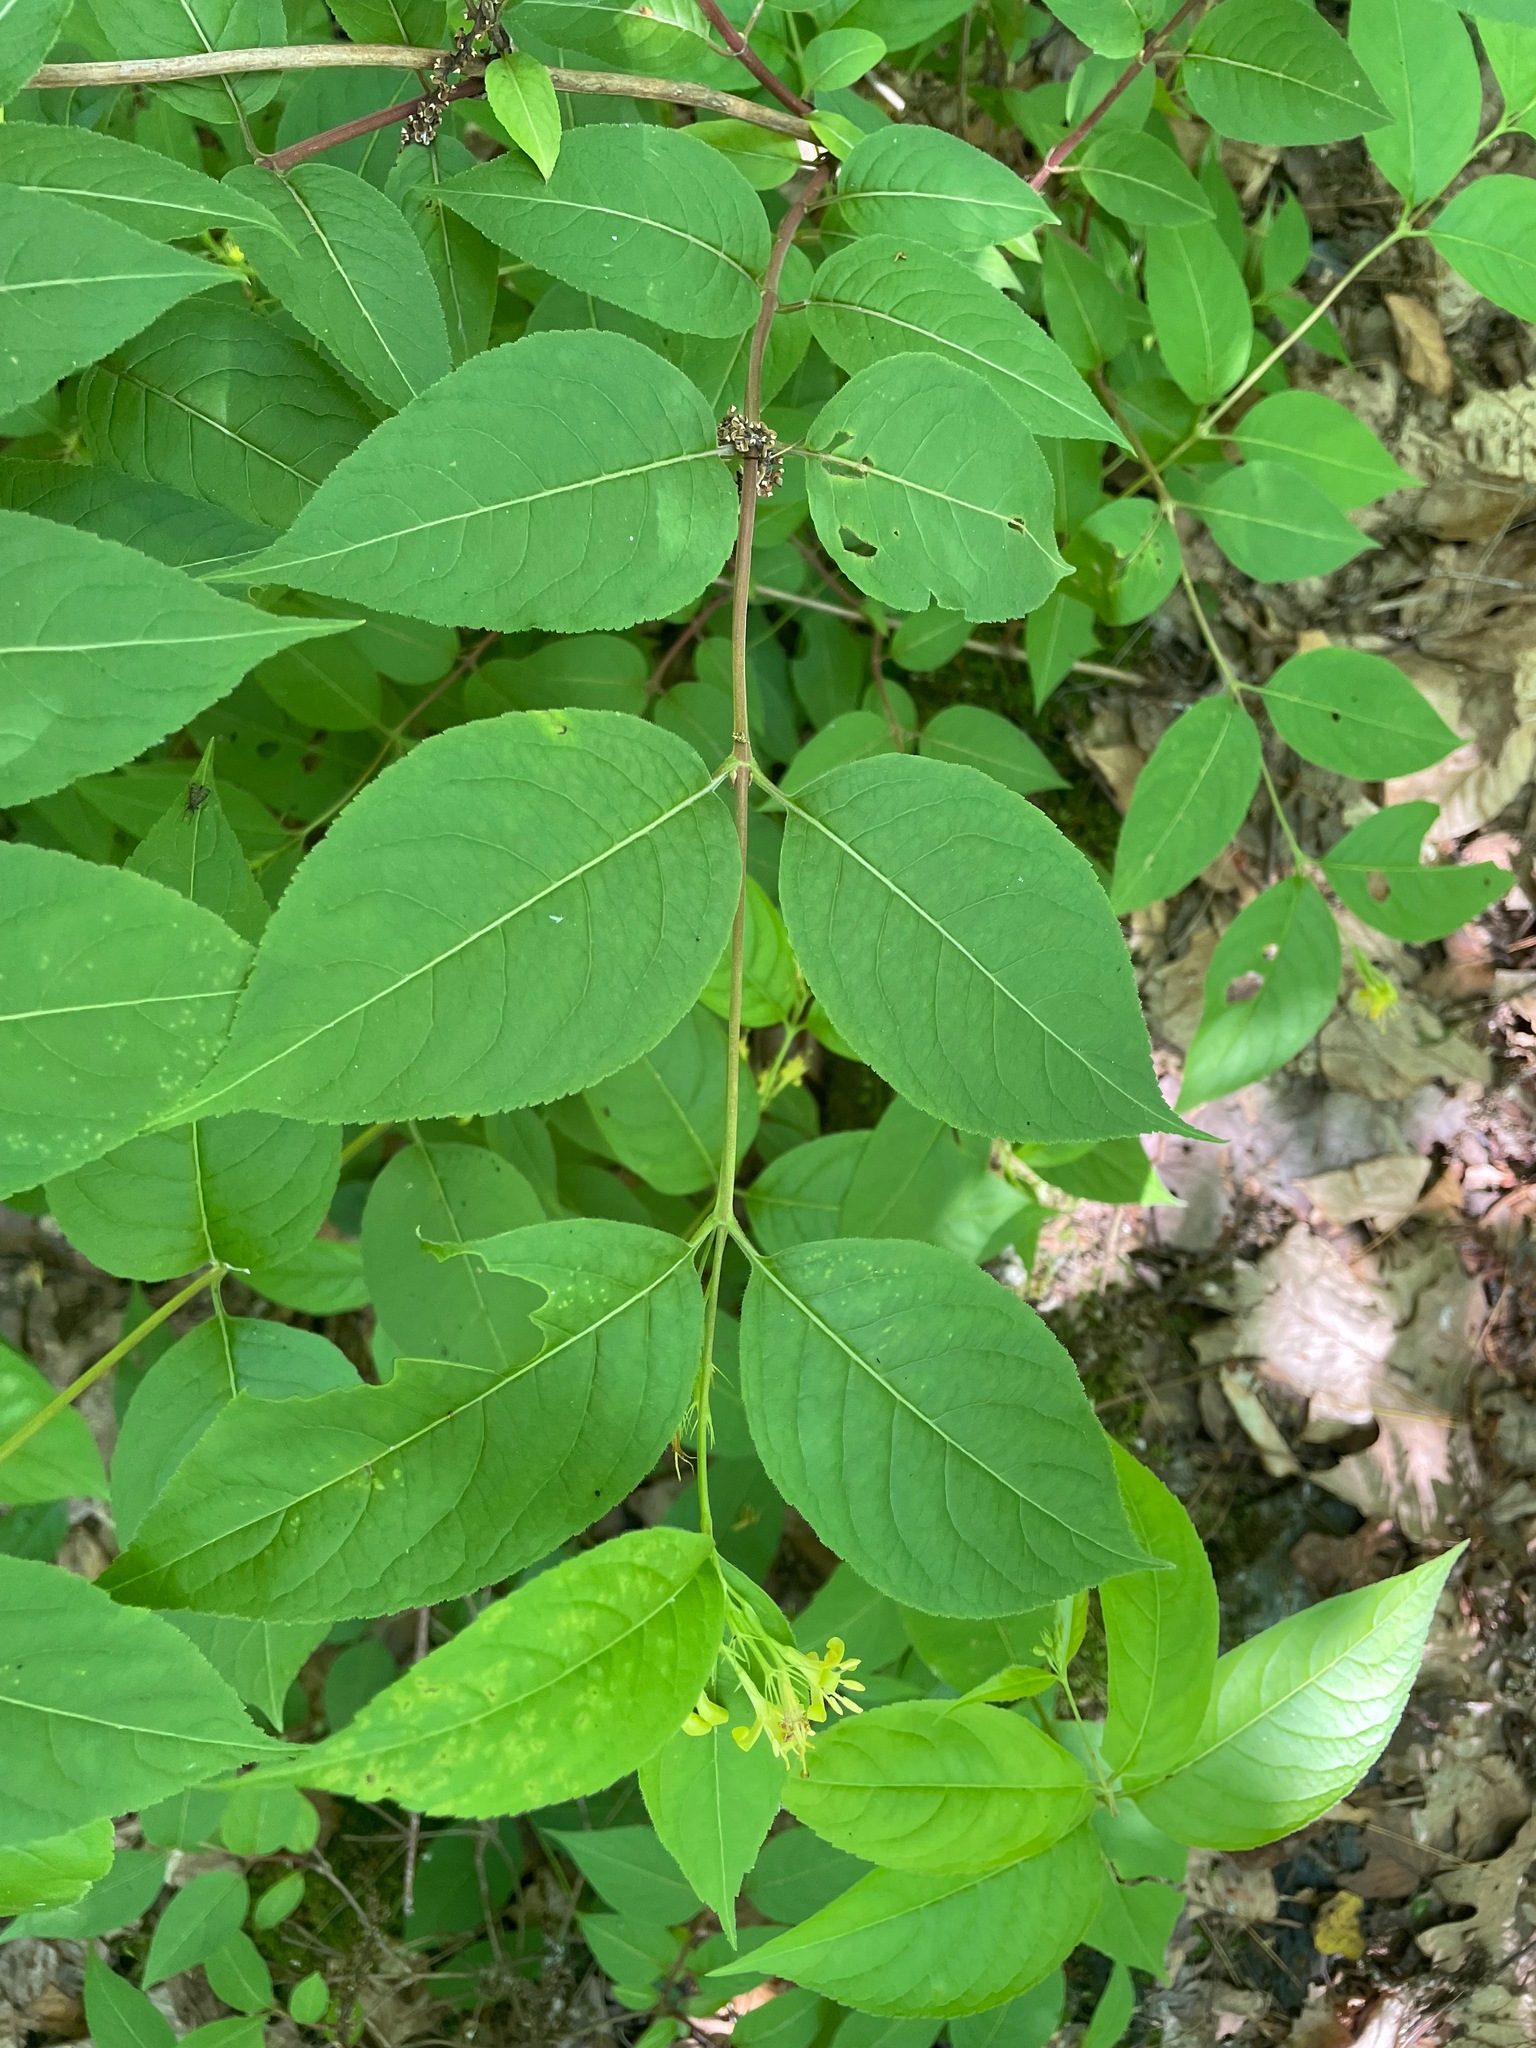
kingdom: Plantae
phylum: Tracheophyta
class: Magnoliopsida
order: Dipsacales
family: Caprifoliaceae
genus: Diervilla
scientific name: Diervilla lonicera
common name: Bush-honeysuckle
